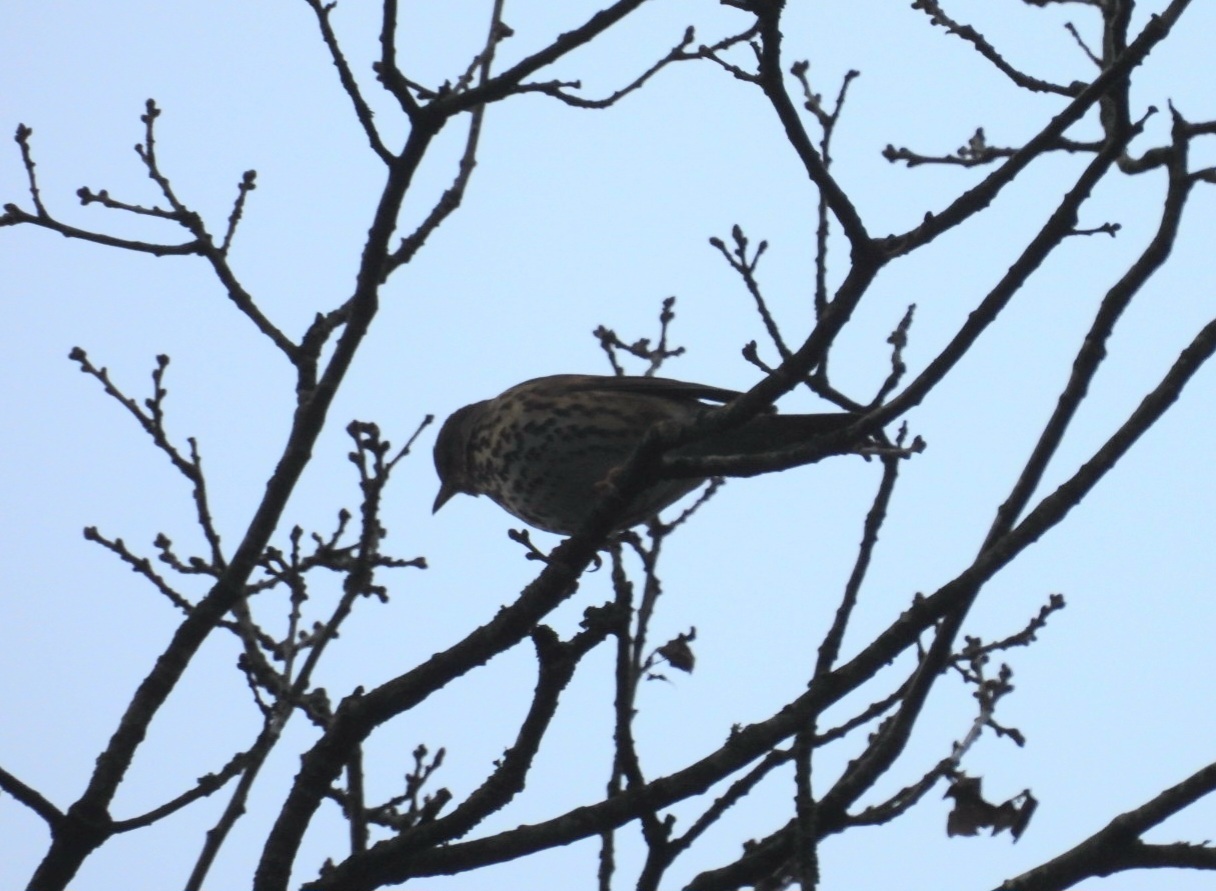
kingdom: Animalia
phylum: Chordata
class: Aves
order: Passeriformes
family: Turdidae
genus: Turdus
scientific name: Turdus philomelos
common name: Song thrush
